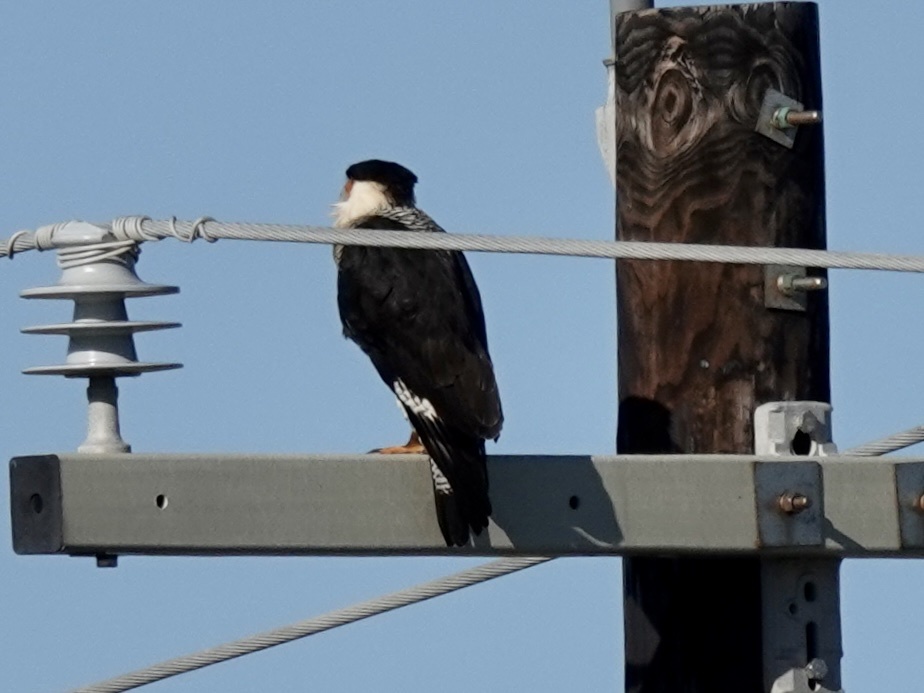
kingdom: Animalia
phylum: Chordata
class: Aves
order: Falconiformes
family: Falconidae
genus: Caracara
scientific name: Caracara plancus
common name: Southern caracara
